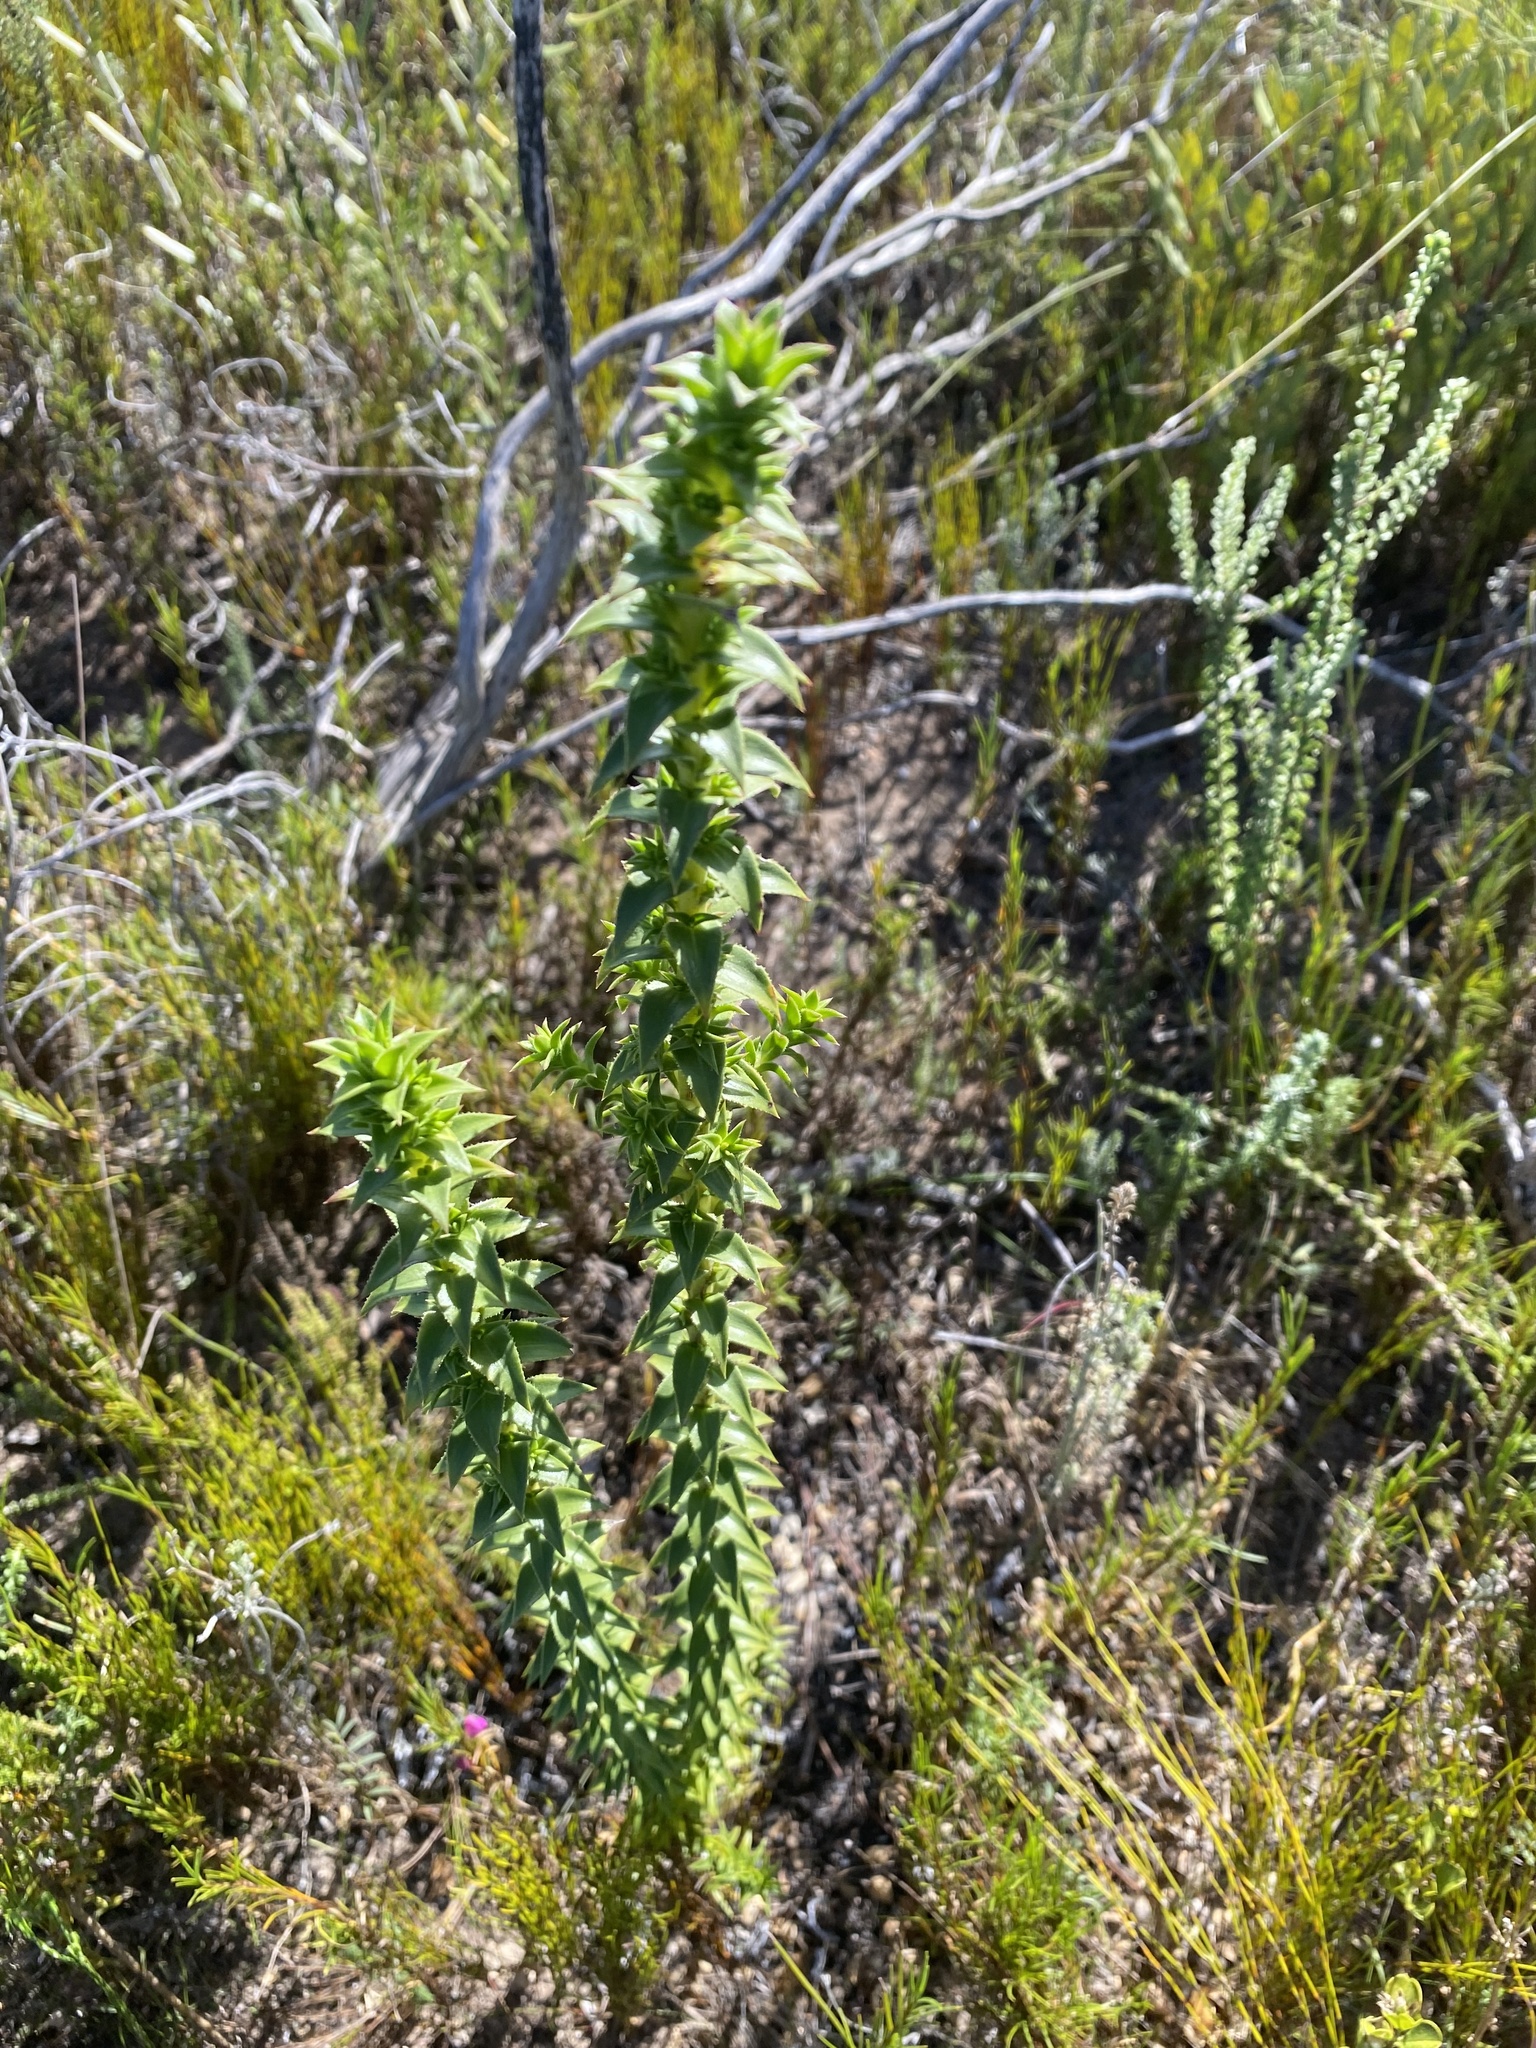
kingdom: Plantae
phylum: Tracheophyta
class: Magnoliopsida
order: Asterales
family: Asteraceae
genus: Oedera
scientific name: Oedera imbricata
